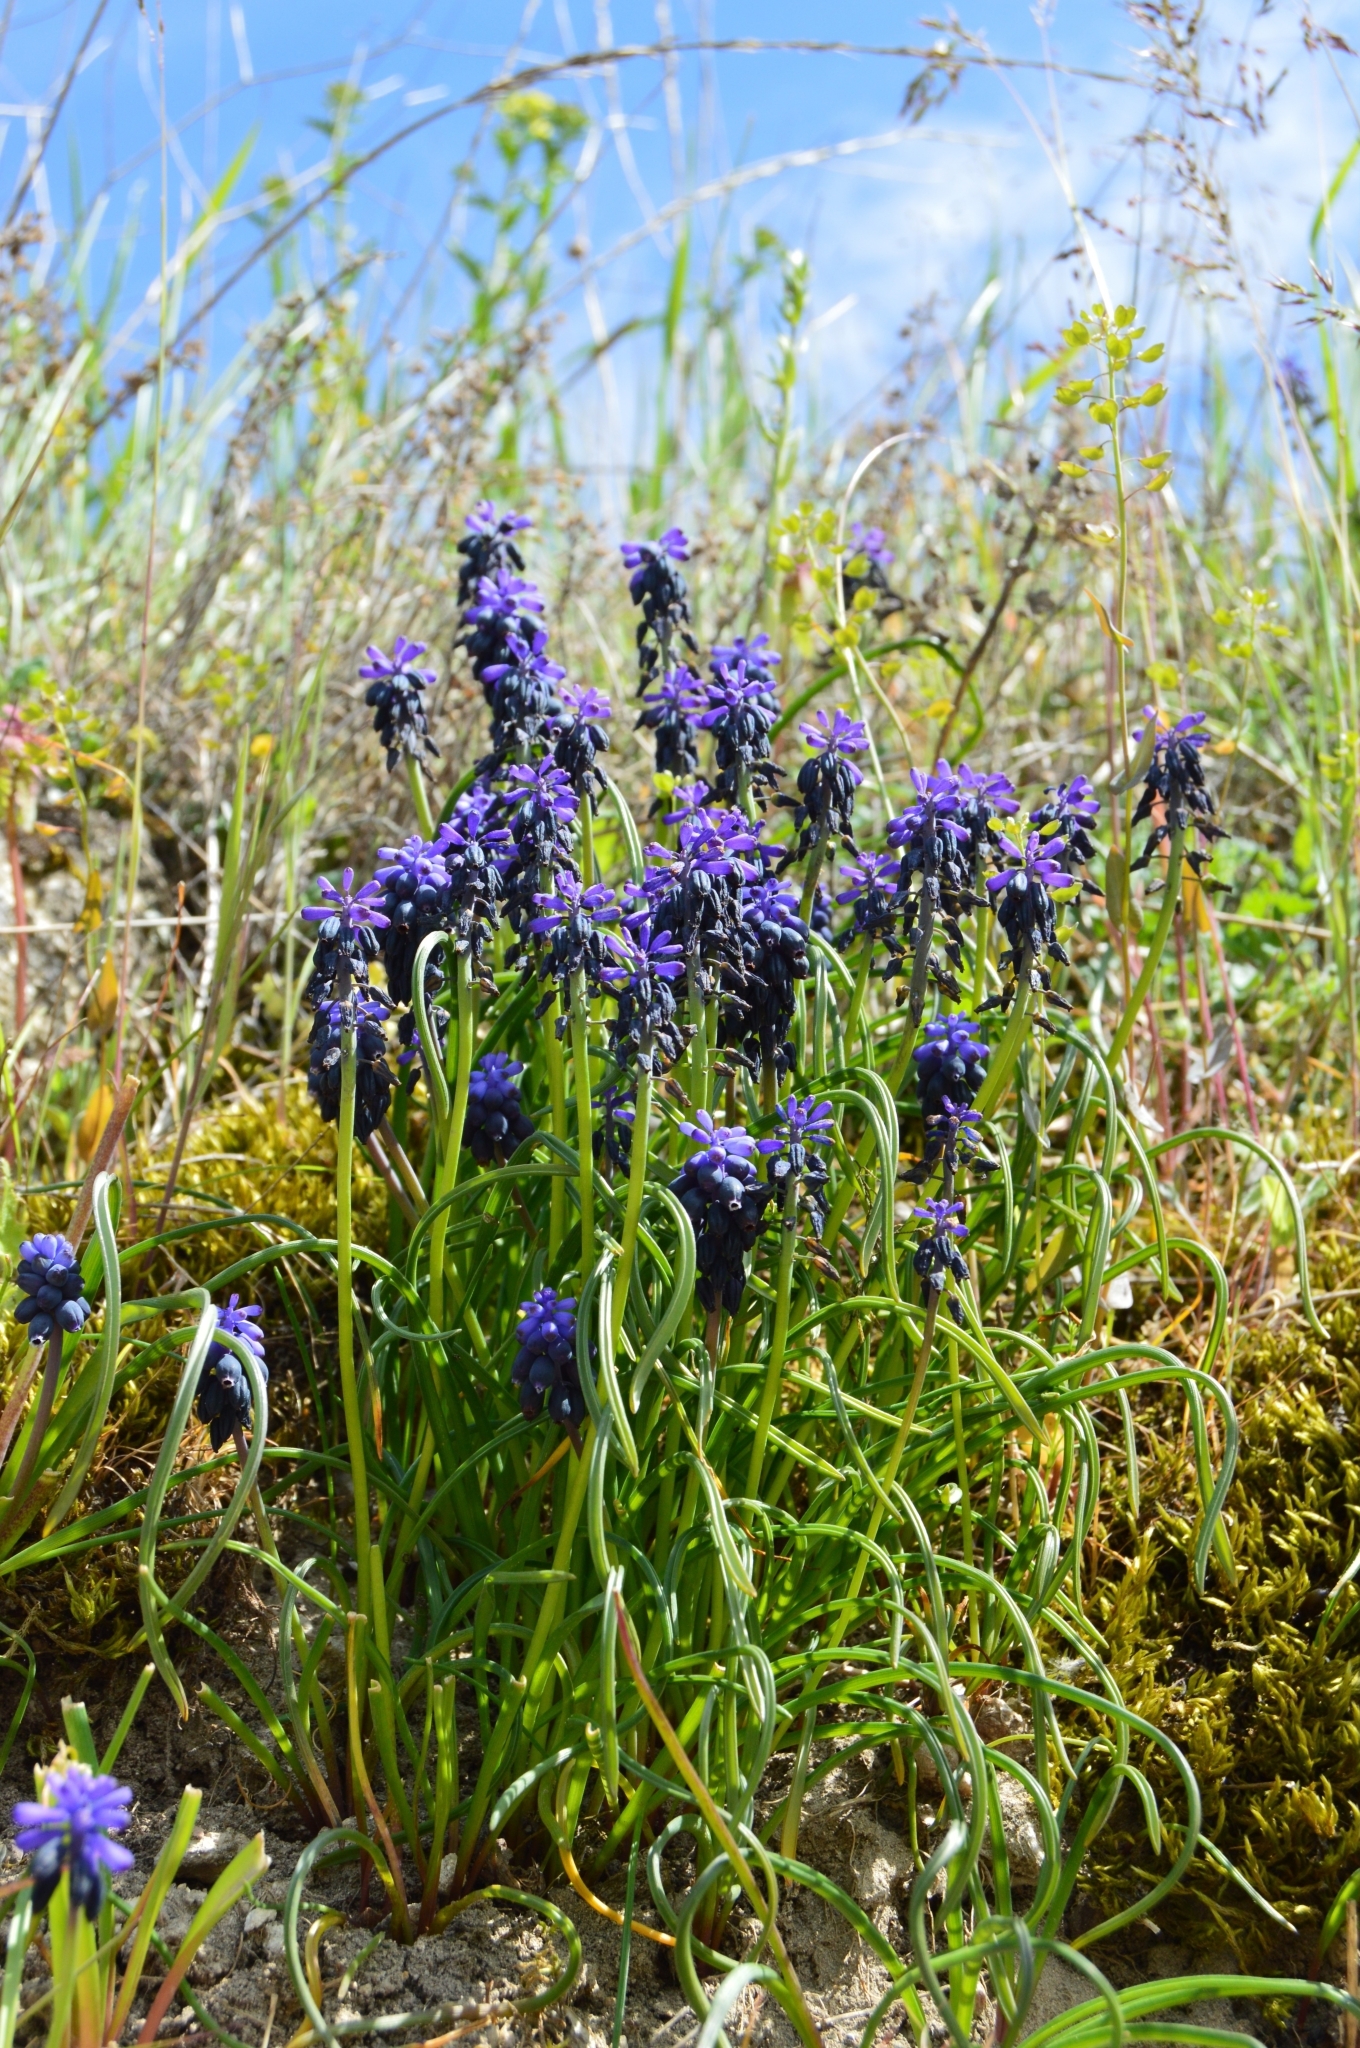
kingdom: Plantae
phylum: Tracheophyta
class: Liliopsida
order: Asparagales
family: Asparagaceae
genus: Muscari
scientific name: Muscari neglectum
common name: Grape-hyacinth
